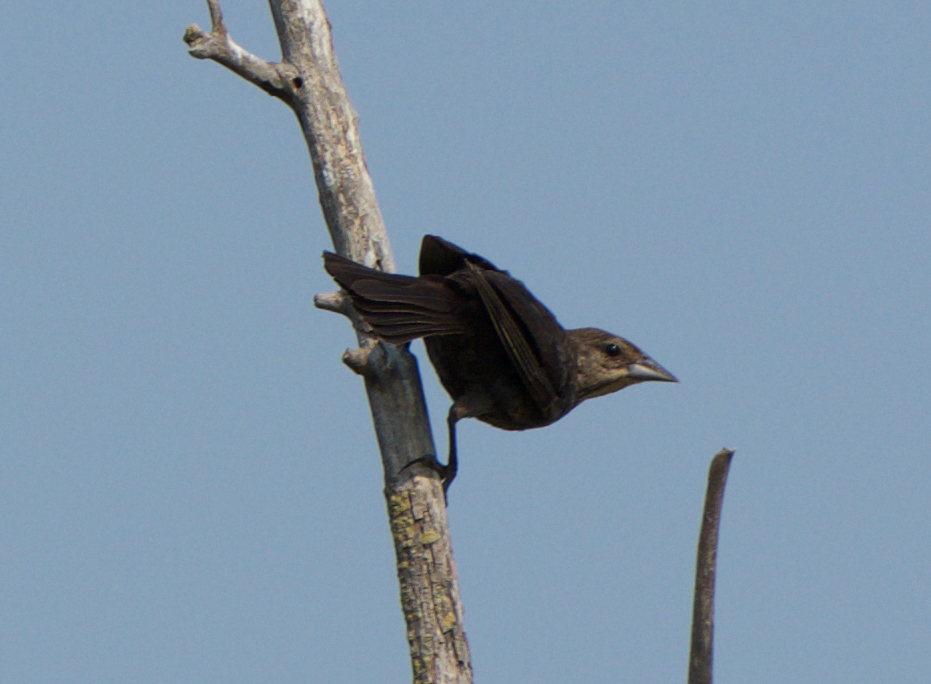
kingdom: Animalia
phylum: Chordata
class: Aves
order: Passeriformes
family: Icteridae
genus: Molothrus
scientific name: Molothrus ater
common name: Brown-headed cowbird
